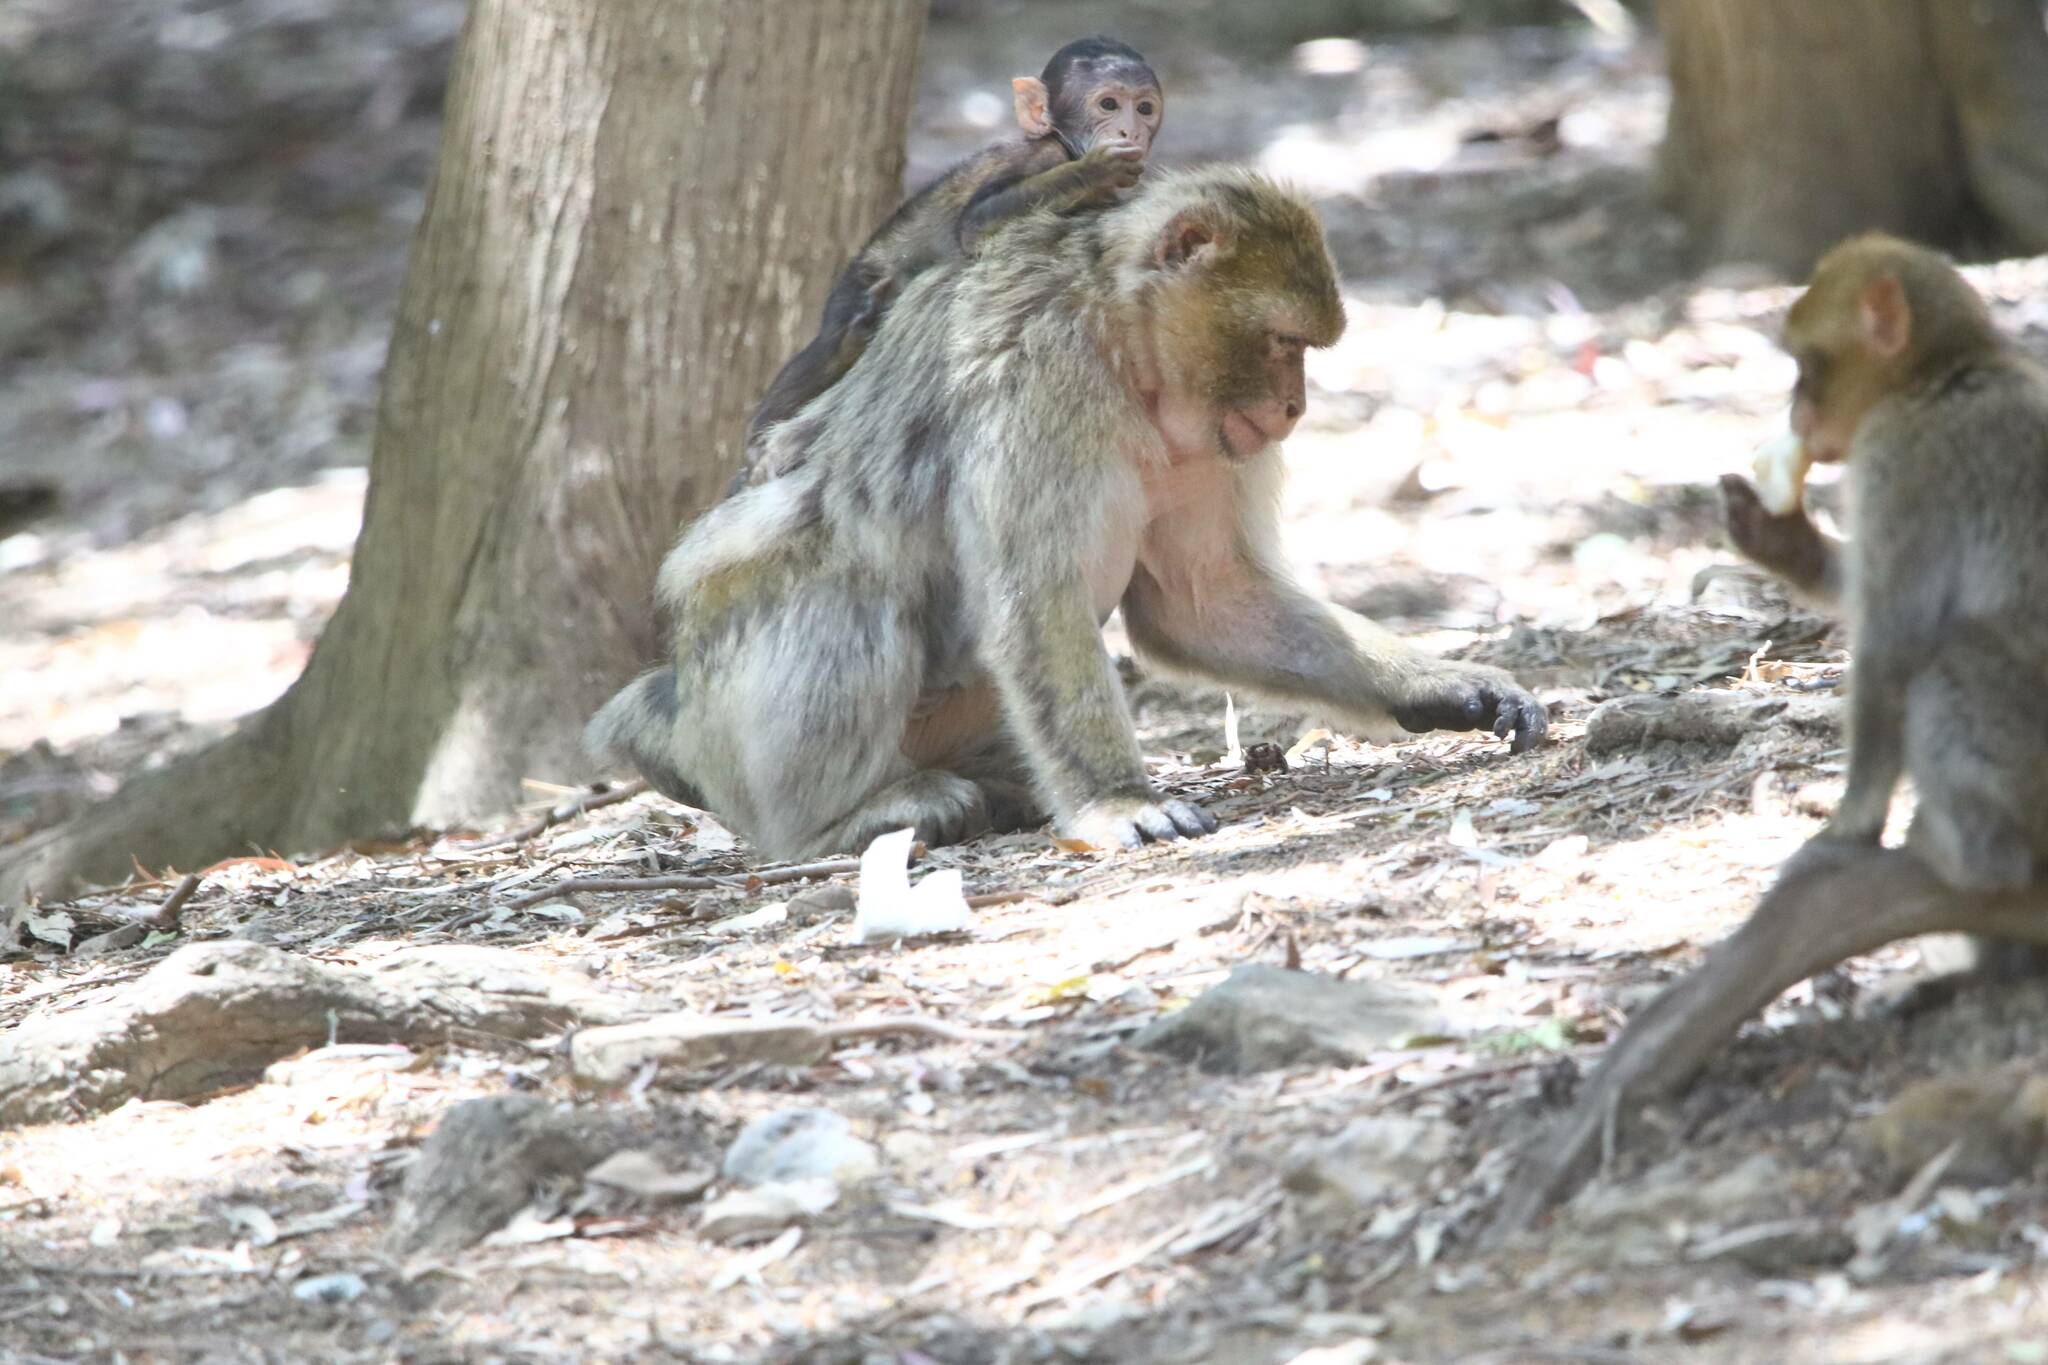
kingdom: Animalia
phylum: Chordata
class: Mammalia
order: Primates
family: Cercopithecidae
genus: Macaca
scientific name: Macaca sylvanus
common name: Barbary macaque
